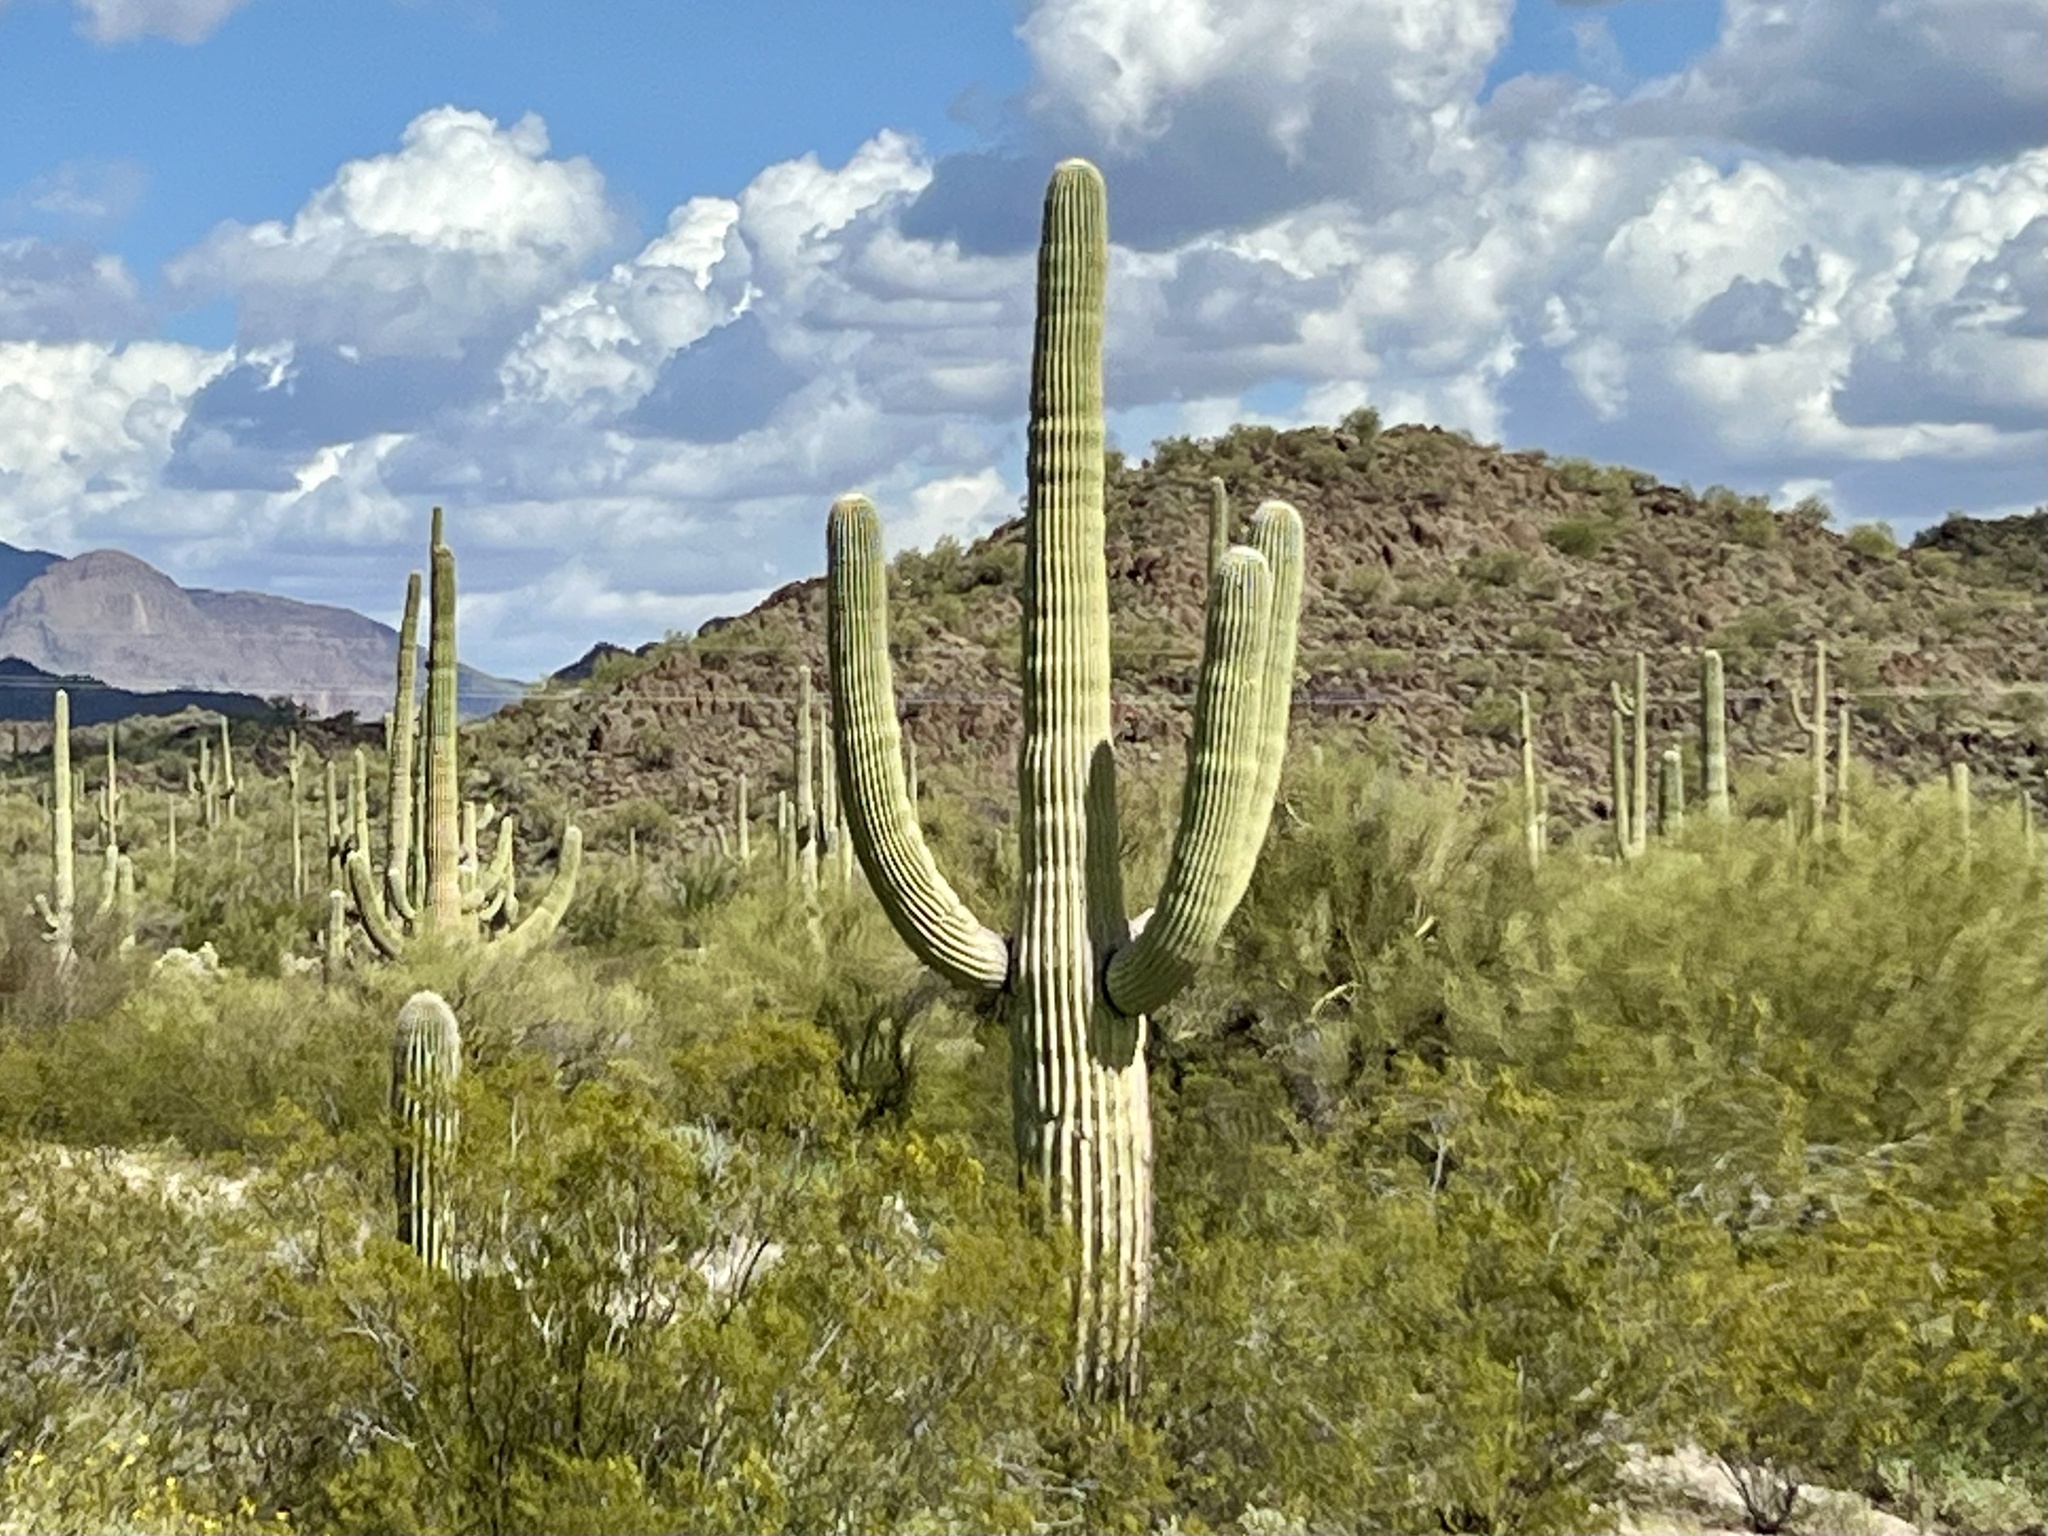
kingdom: Plantae
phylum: Tracheophyta
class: Magnoliopsida
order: Caryophyllales
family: Cactaceae
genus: Carnegiea
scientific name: Carnegiea gigantea
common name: Saguaro
